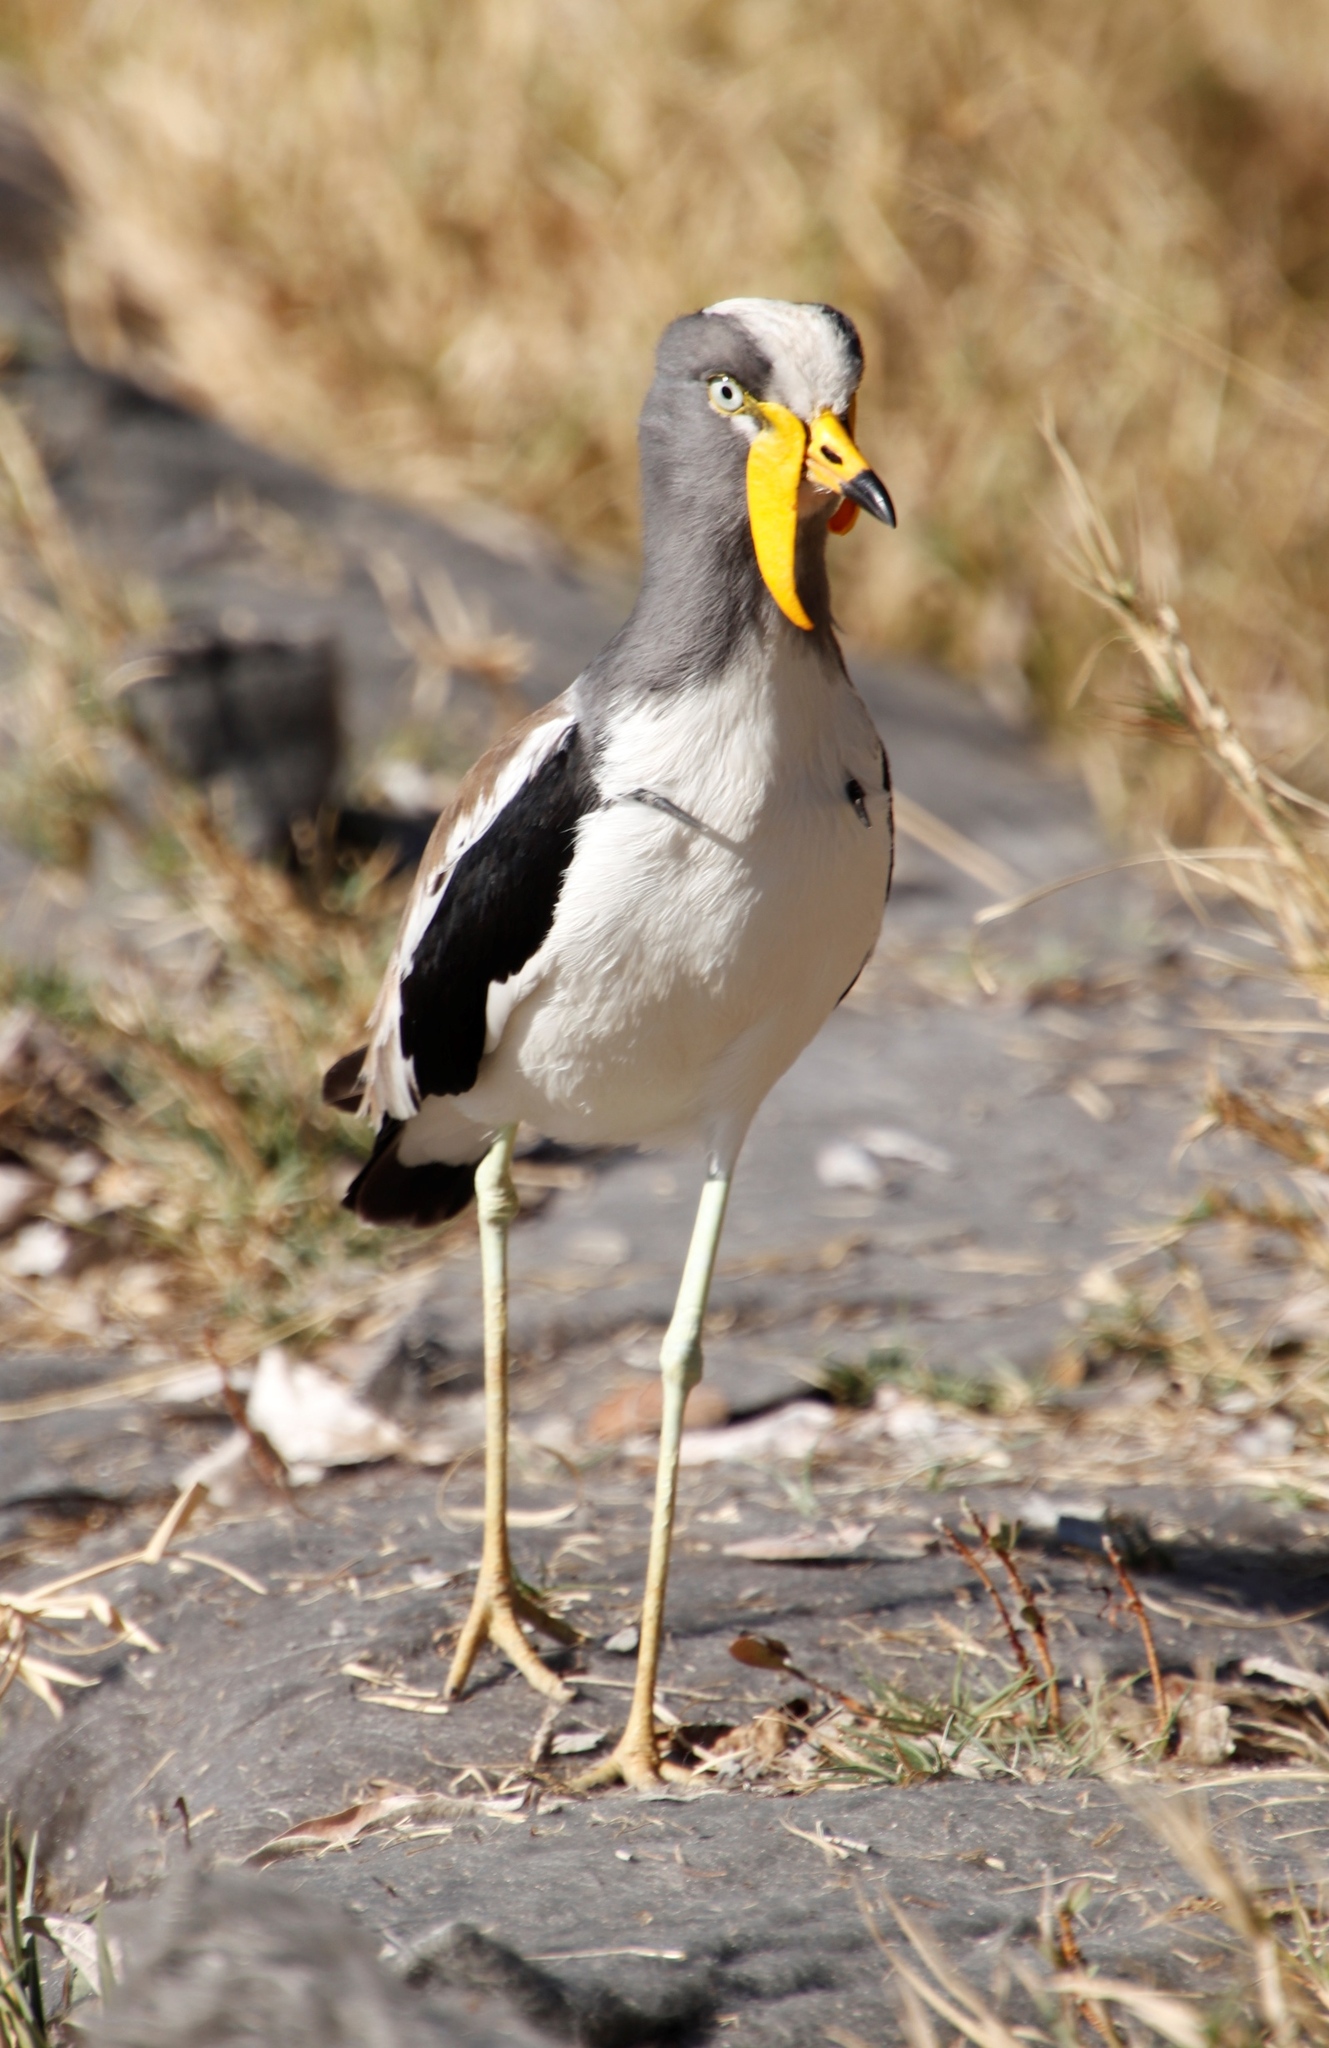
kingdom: Animalia
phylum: Chordata
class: Aves
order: Charadriiformes
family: Charadriidae
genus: Vanellus
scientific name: Vanellus albiceps
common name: White-crowned lapwing
